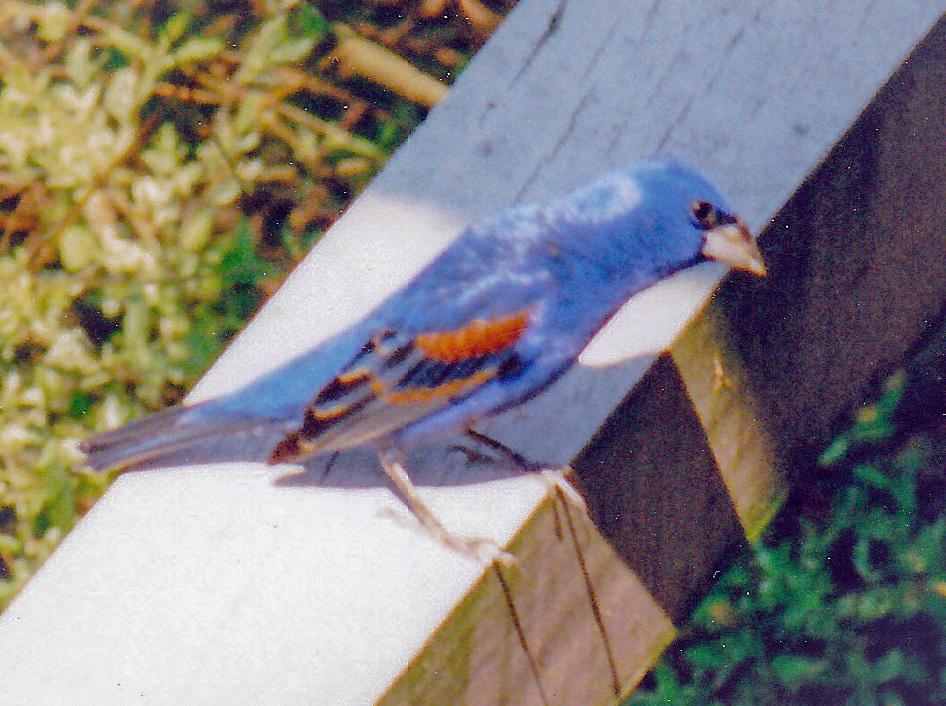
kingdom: Animalia
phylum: Chordata
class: Aves
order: Passeriformes
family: Cardinalidae
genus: Passerina
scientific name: Passerina caerulea
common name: Blue grosbeak
